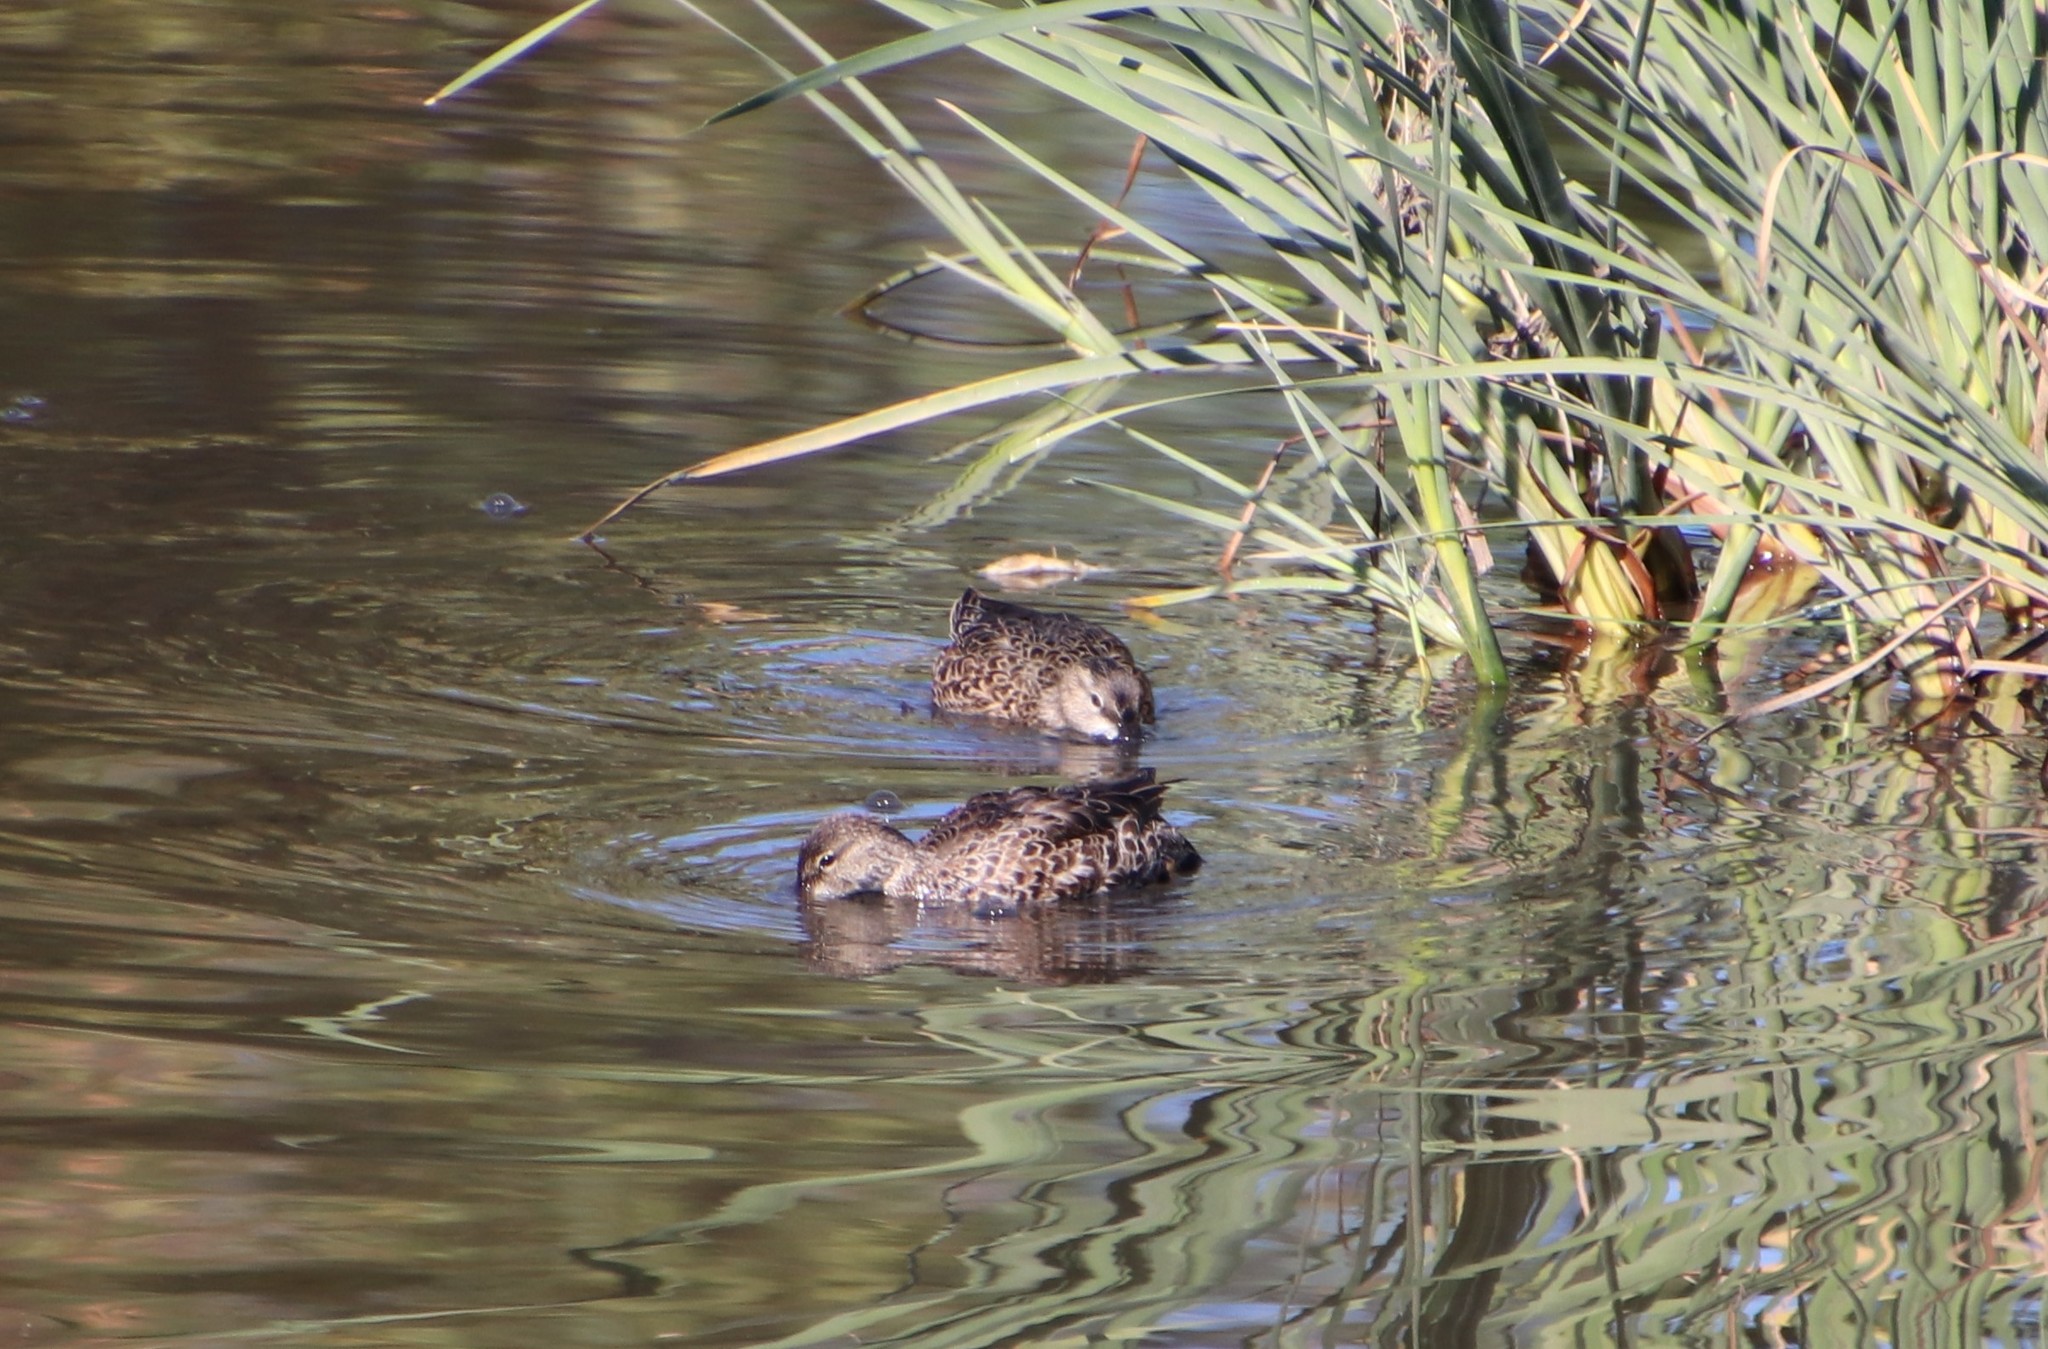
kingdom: Animalia
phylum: Chordata
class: Aves
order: Anseriformes
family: Anatidae
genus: Anas
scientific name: Anas crecca
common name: Eurasian teal
